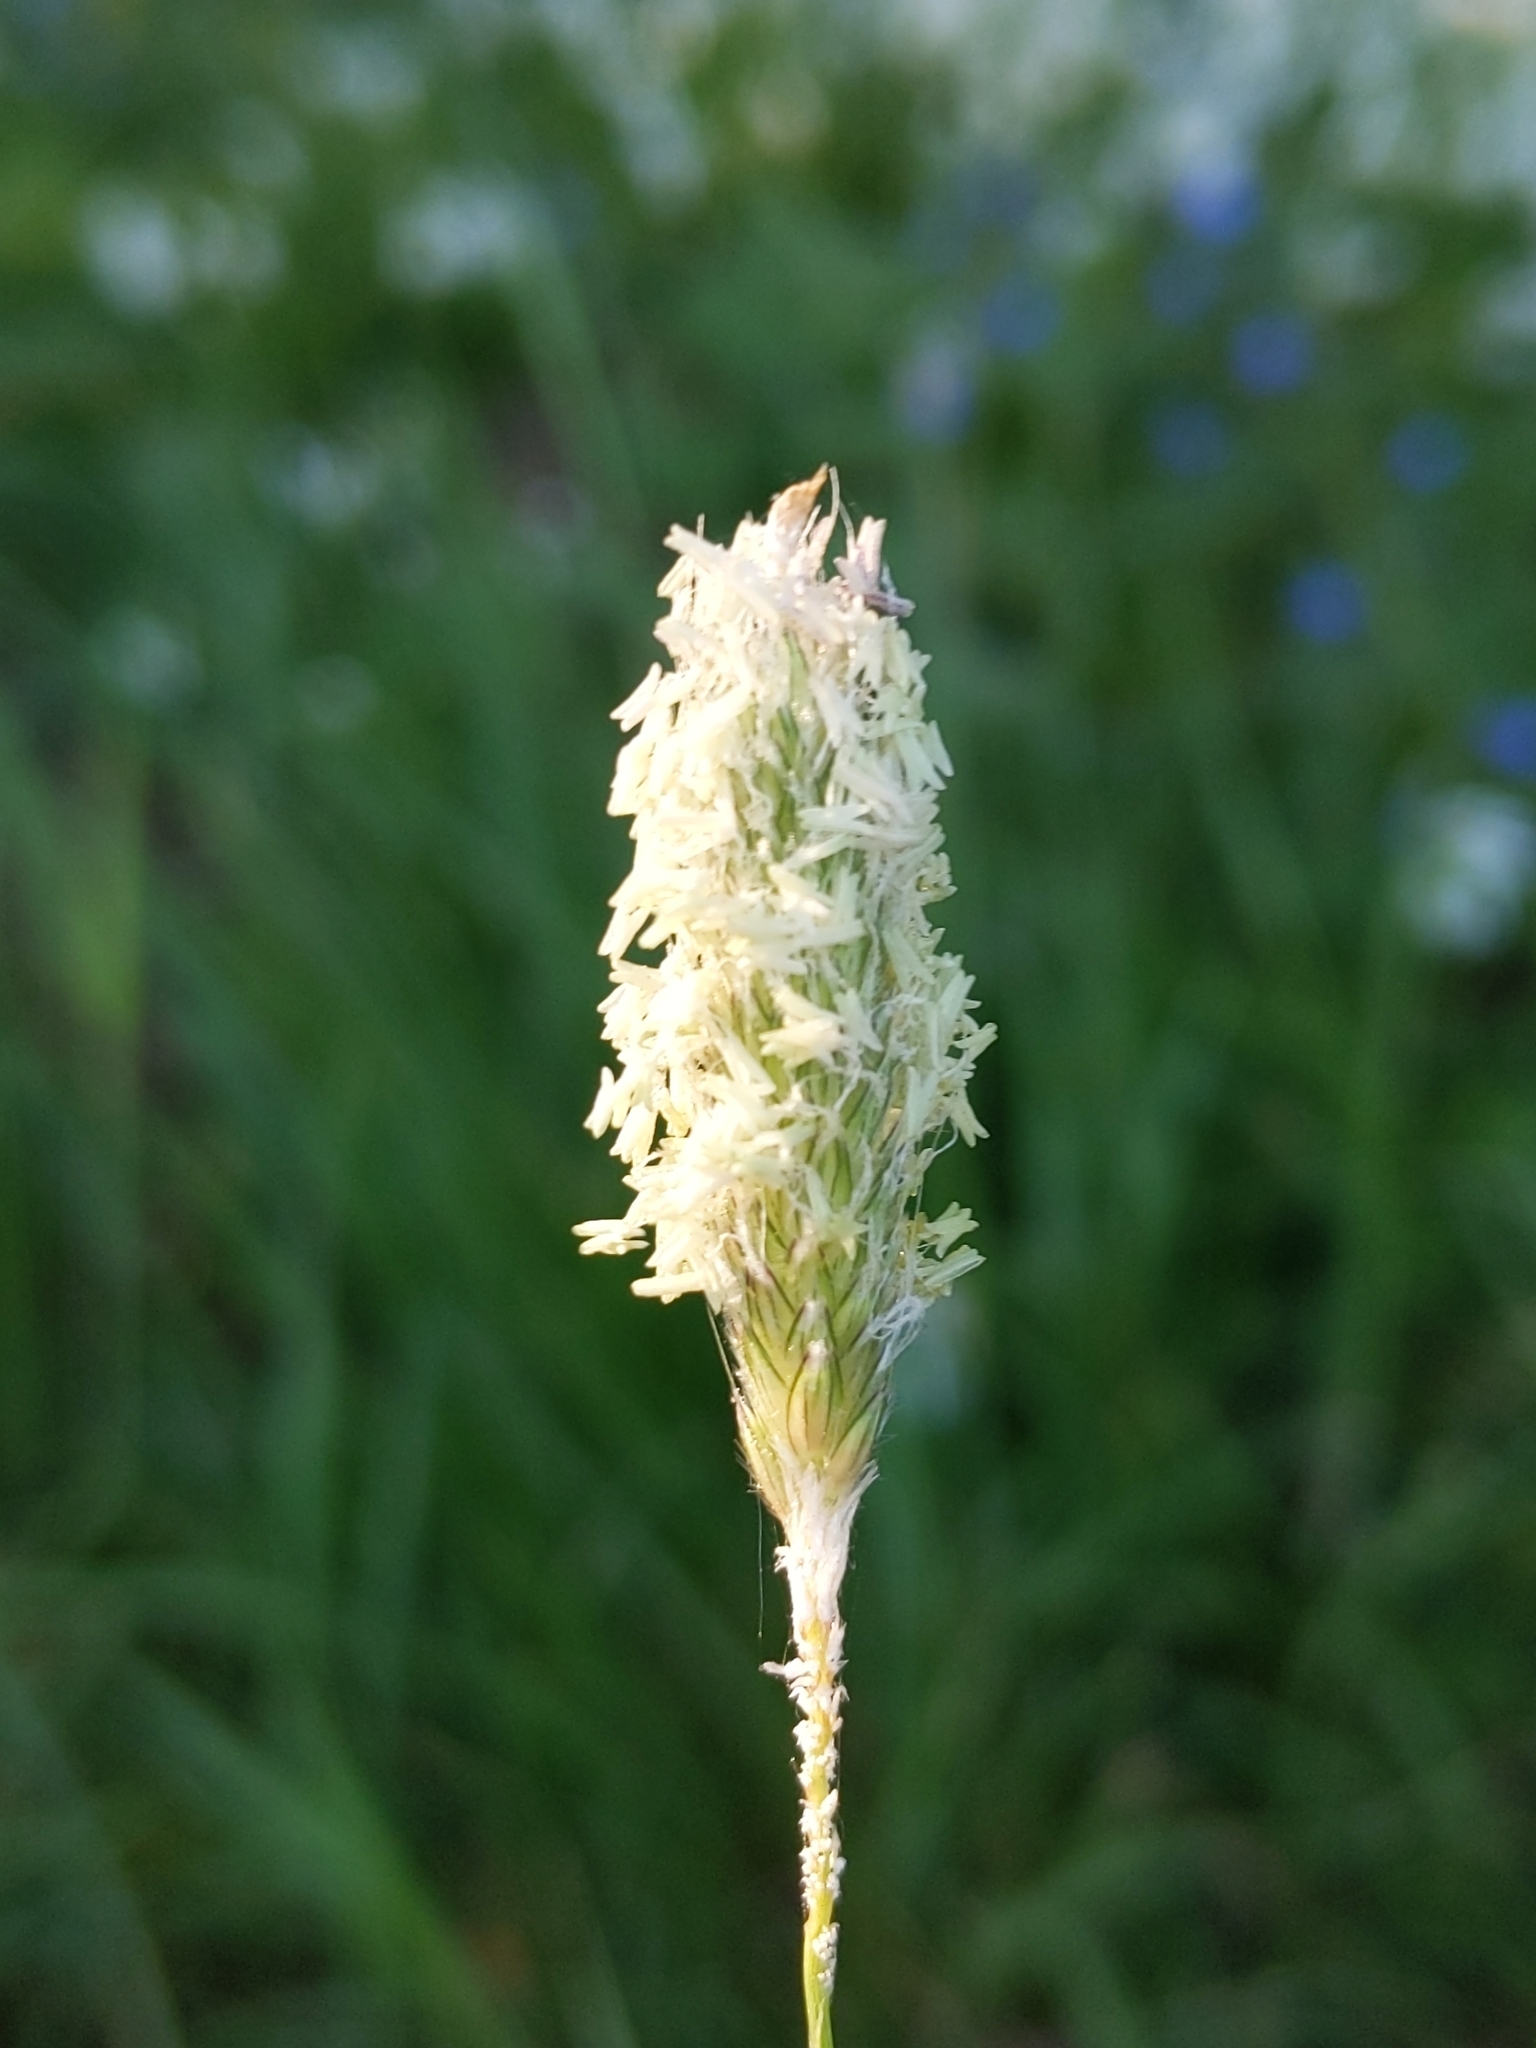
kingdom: Plantae
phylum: Tracheophyta
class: Liliopsida
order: Poales
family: Poaceae
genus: Alopecurus
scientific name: Alopecurus pratensis
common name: Meadow foxtail
